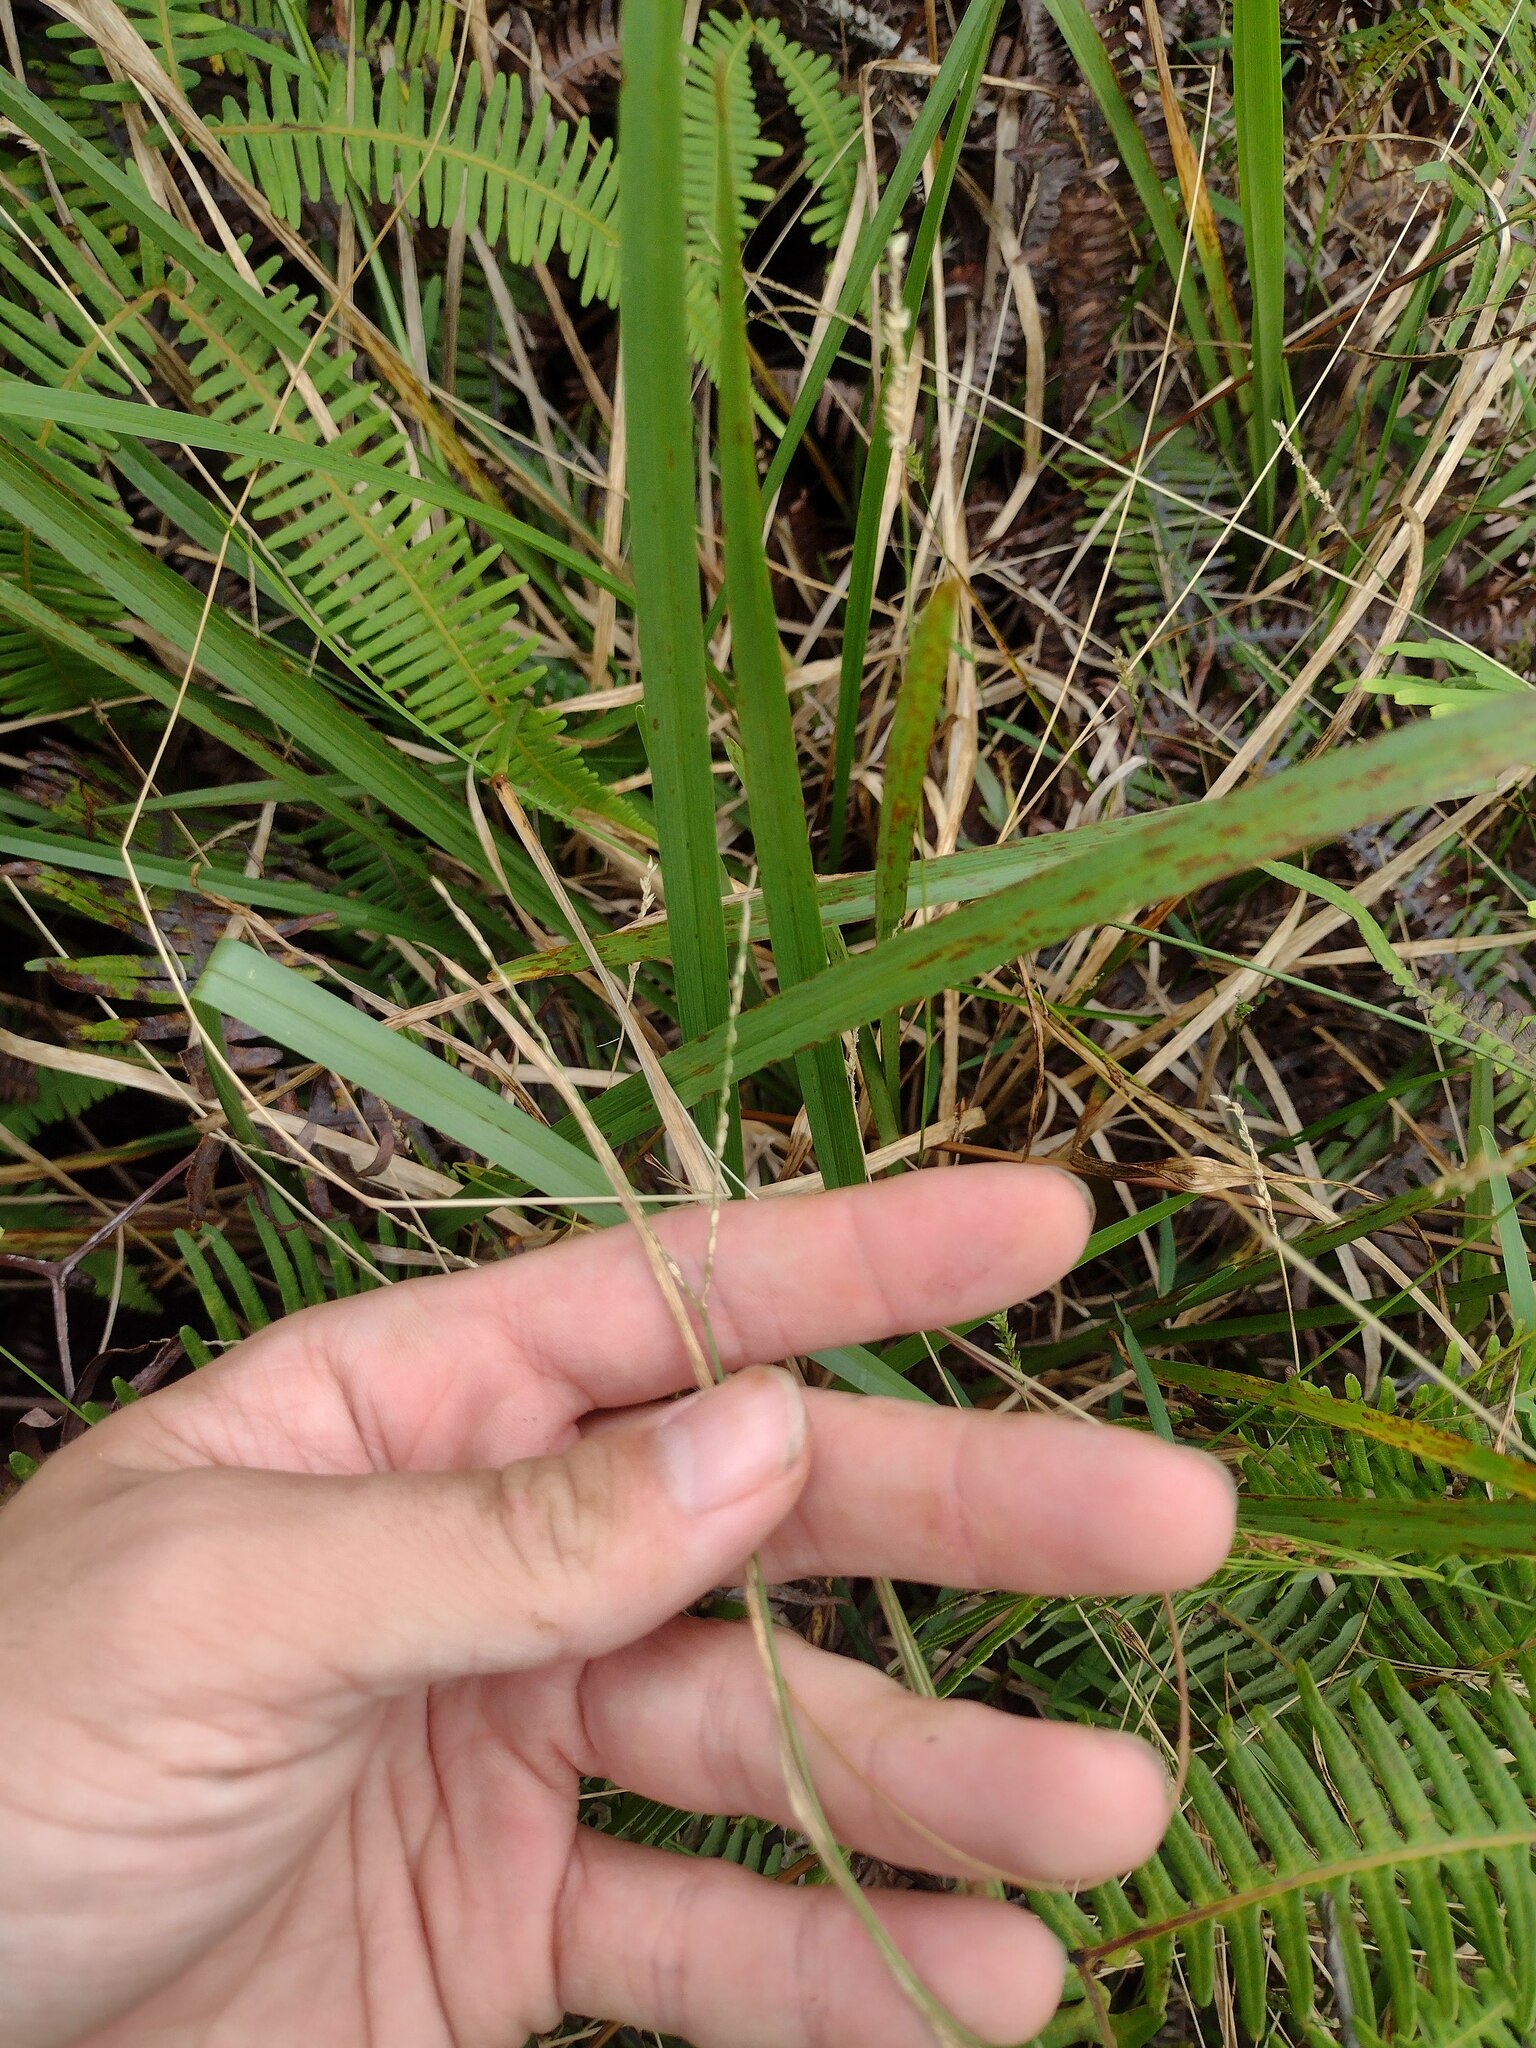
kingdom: Plantae
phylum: Tracheophyta
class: Liliopsida
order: Poales
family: Poaceae
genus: Axonopus
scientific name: Axonopus fissifolius
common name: Common carpetgrass
